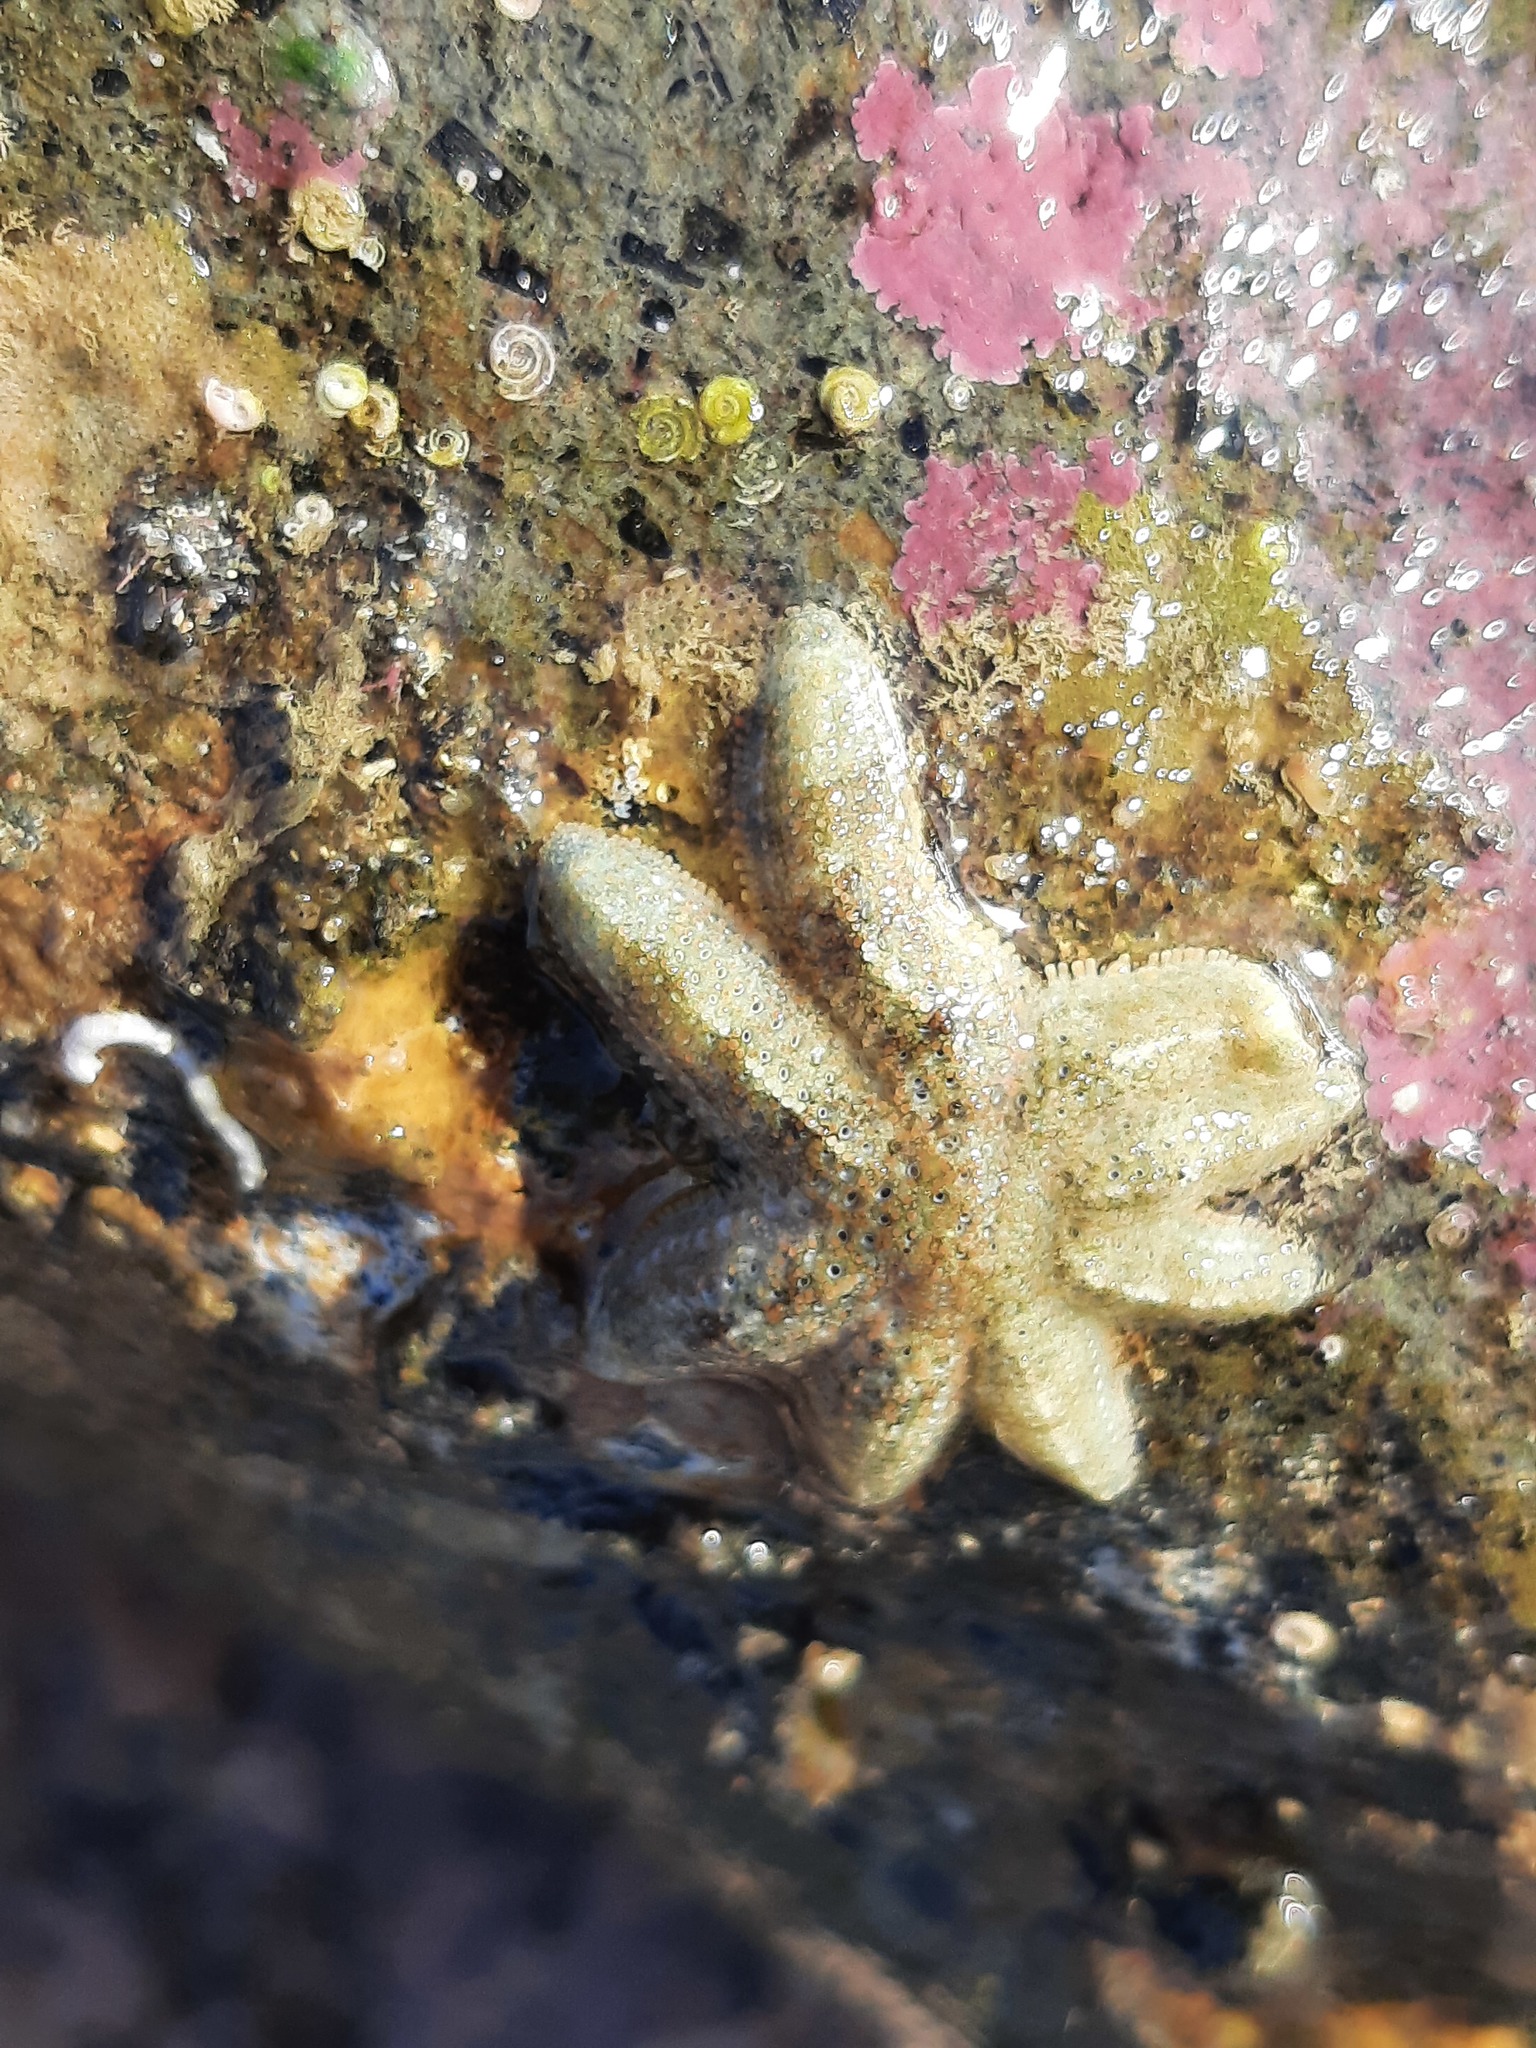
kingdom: Animalia
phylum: Echinodermata
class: Asteroidea
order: Forcipulatida
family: Stichasteridae
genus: Allostichaster
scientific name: Allostichaster polyplax
